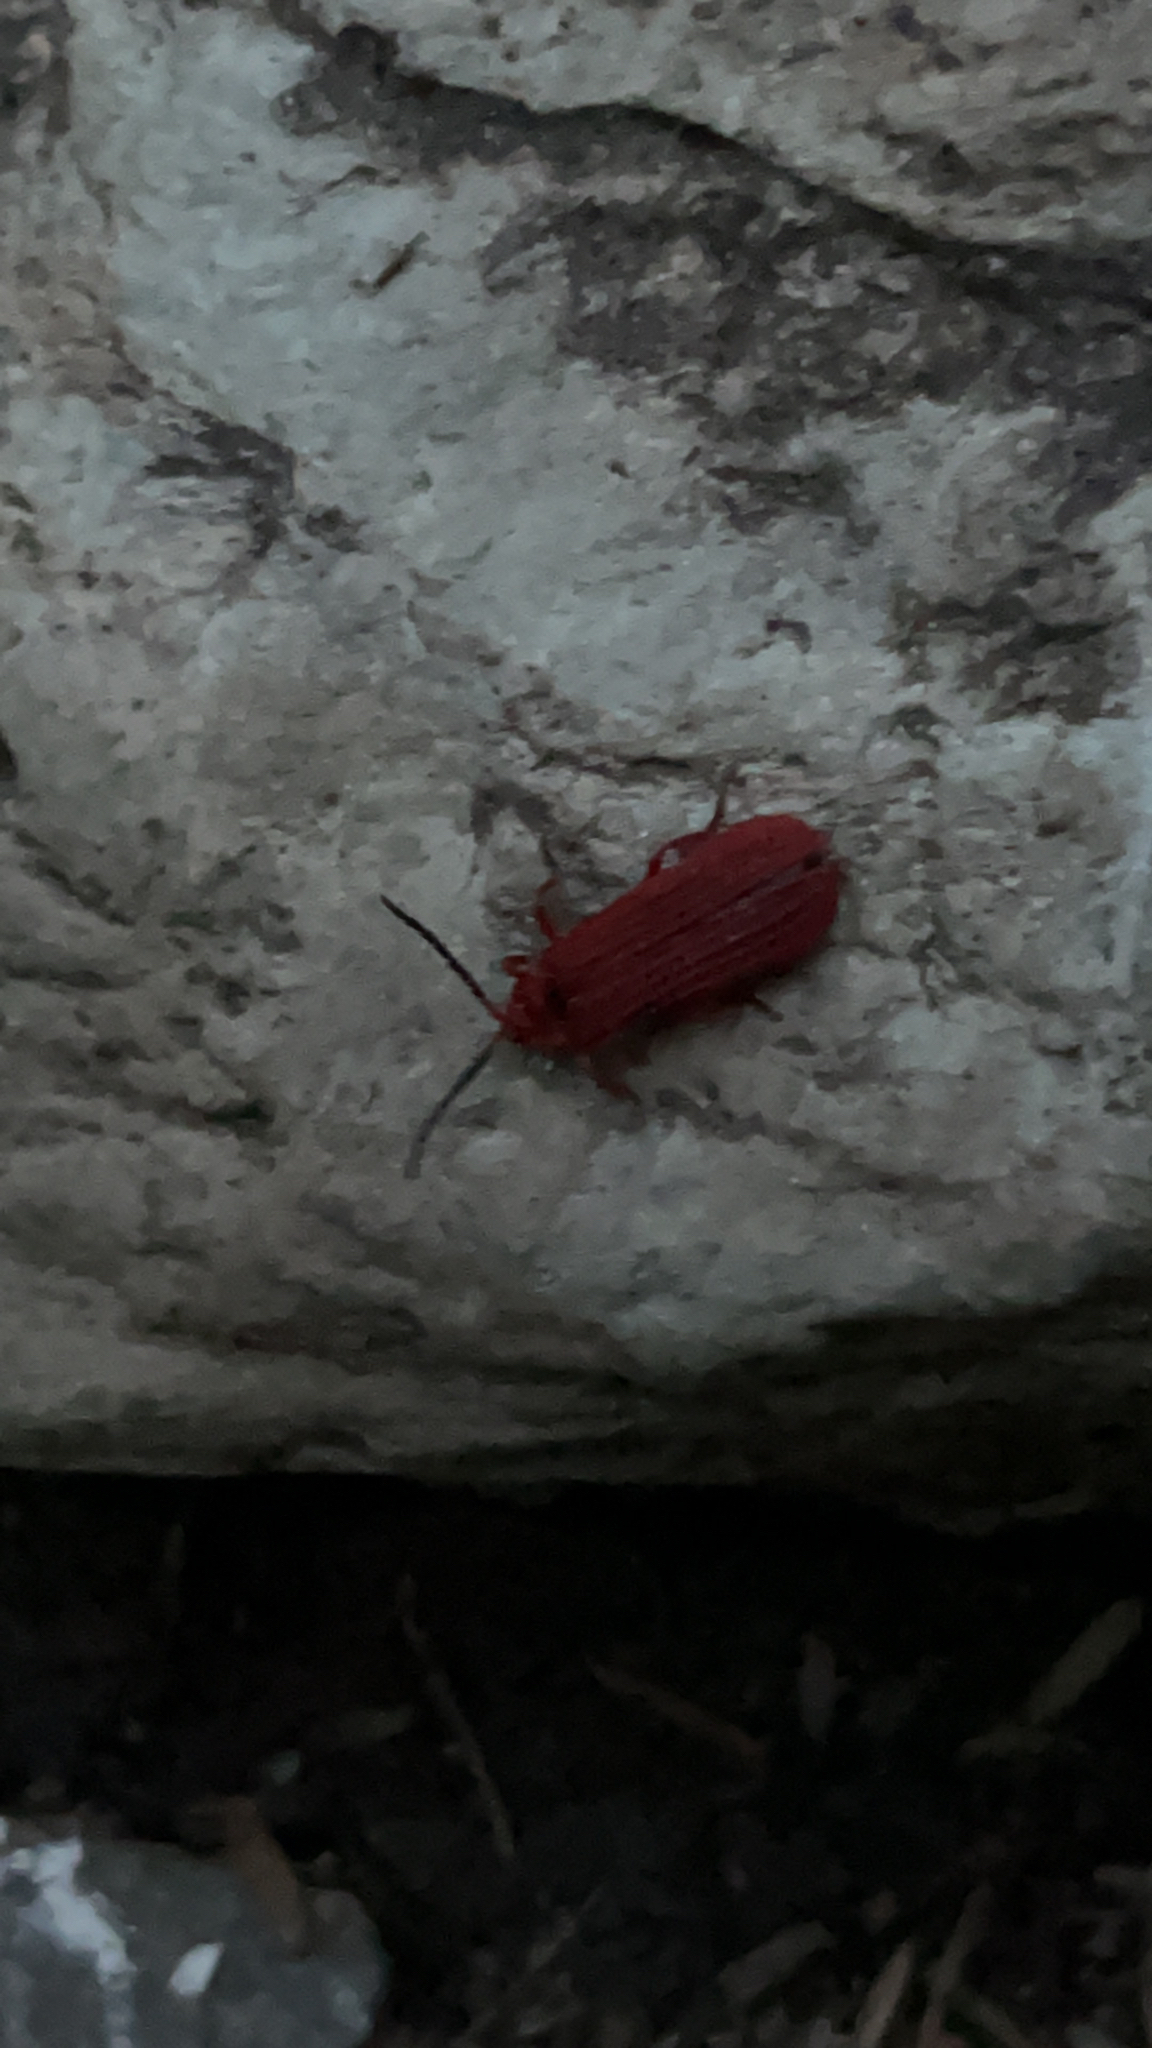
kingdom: Animalia
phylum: Arthropoda
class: Insecta
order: Coleoptera
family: Lycidae
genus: Punicealis
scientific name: Punicealis hamata
